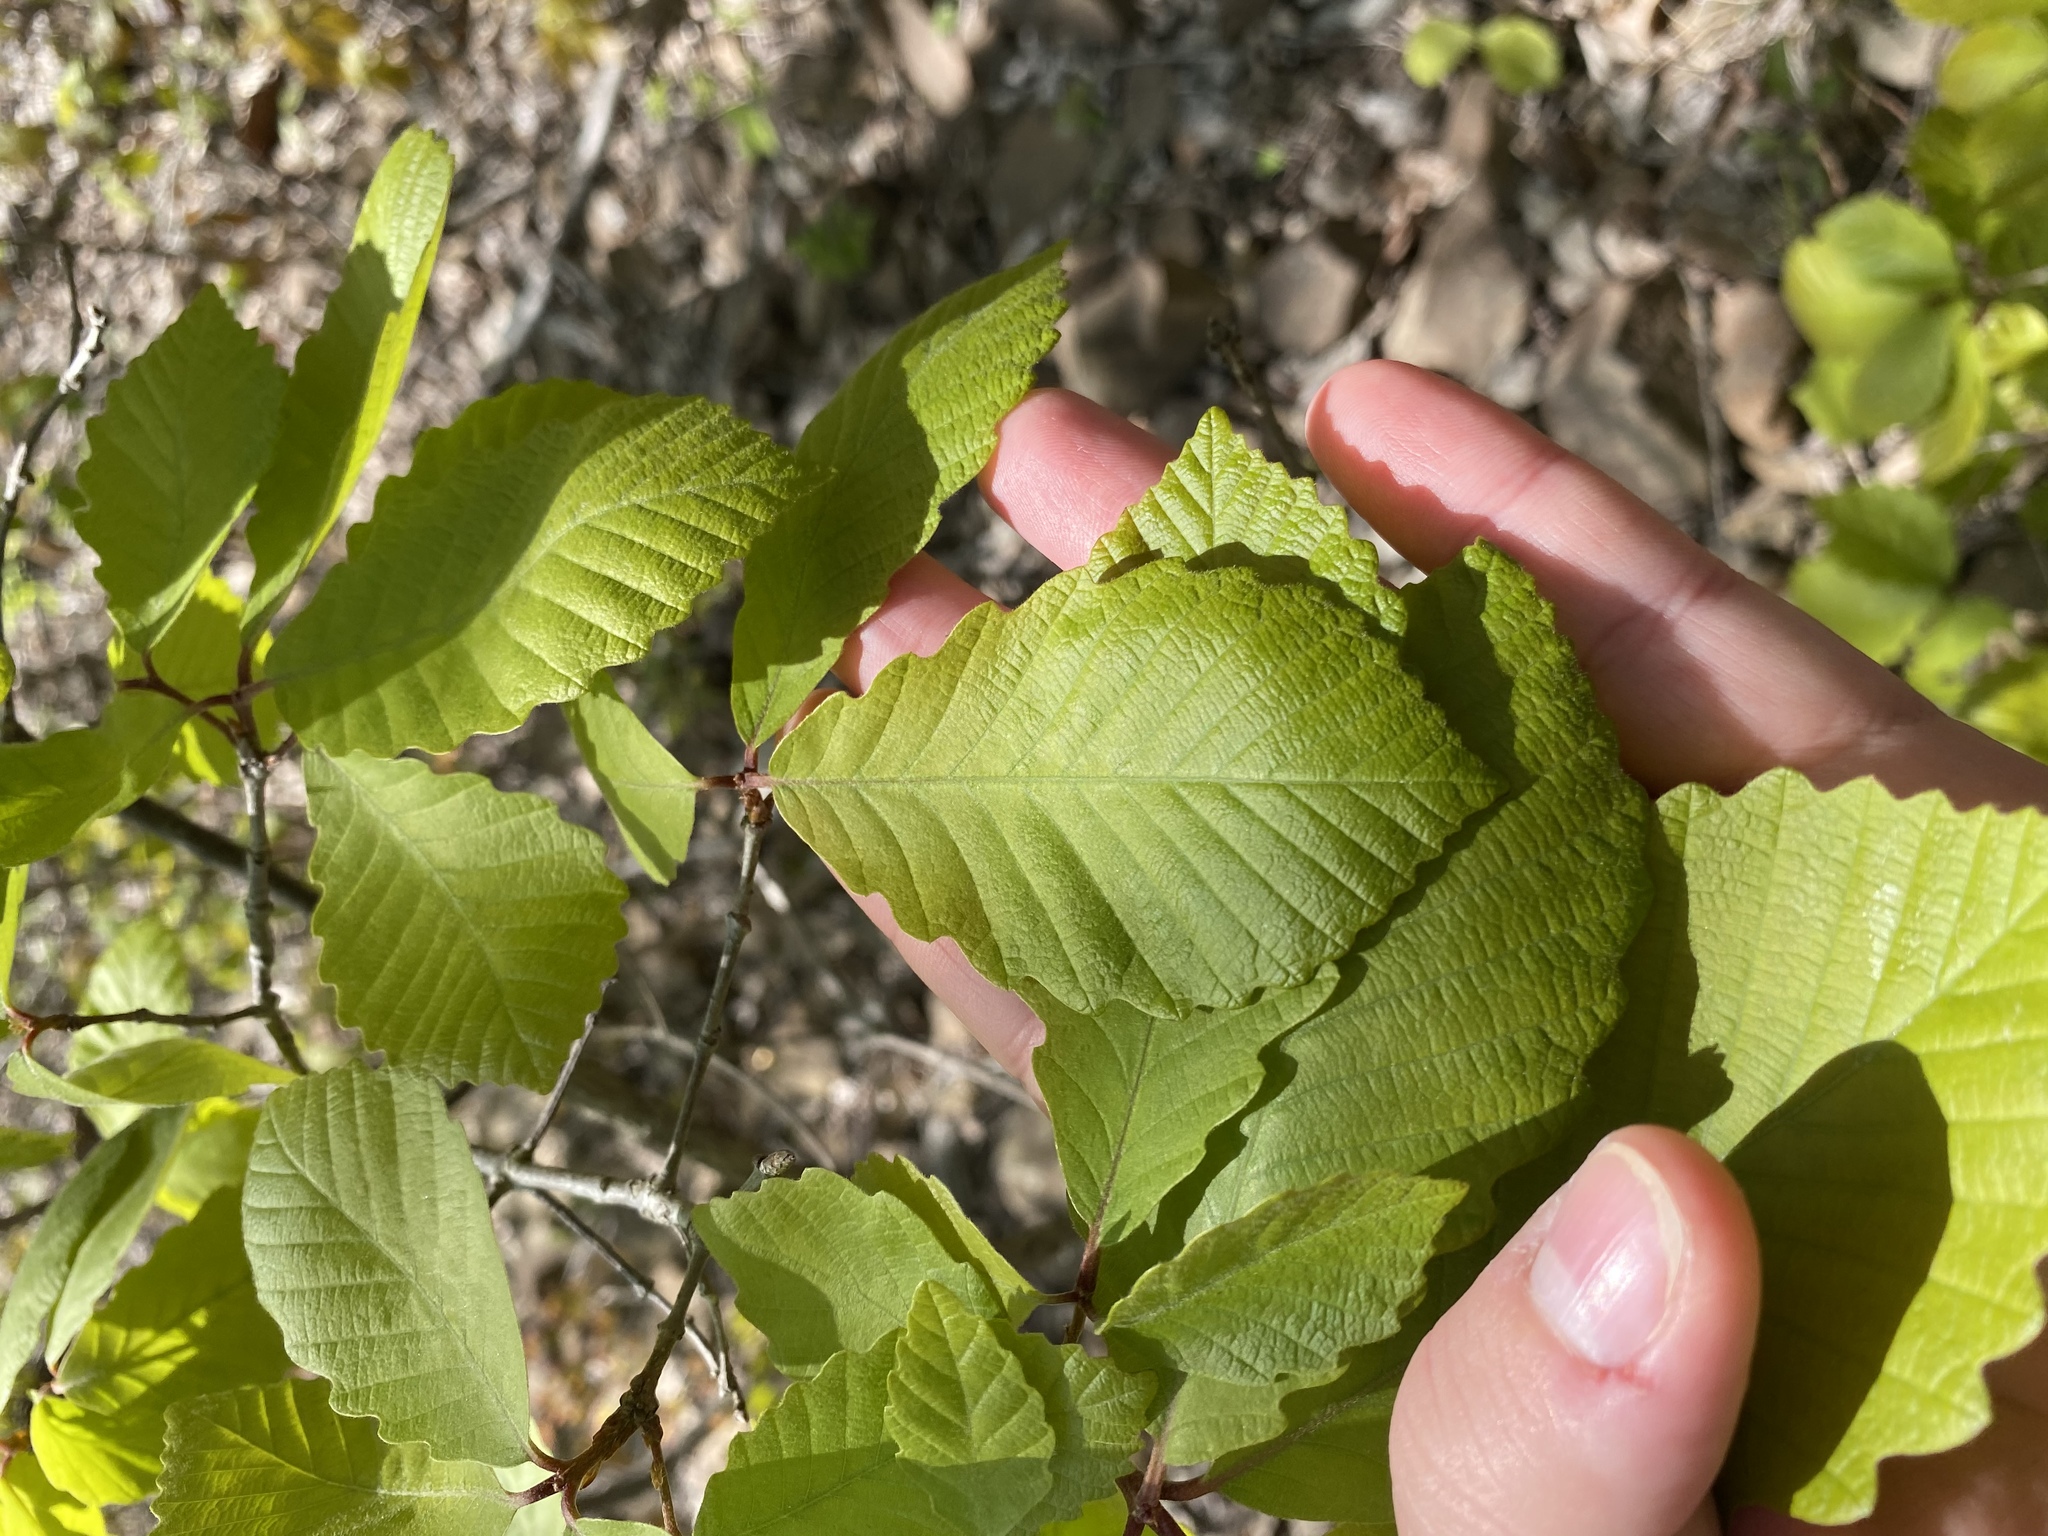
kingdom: Plantae
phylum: Tracheophyta
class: Magnoliopsida
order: Fagales
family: Fagaceae
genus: Quercus
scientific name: Quercus montana
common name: Chestnut oak
